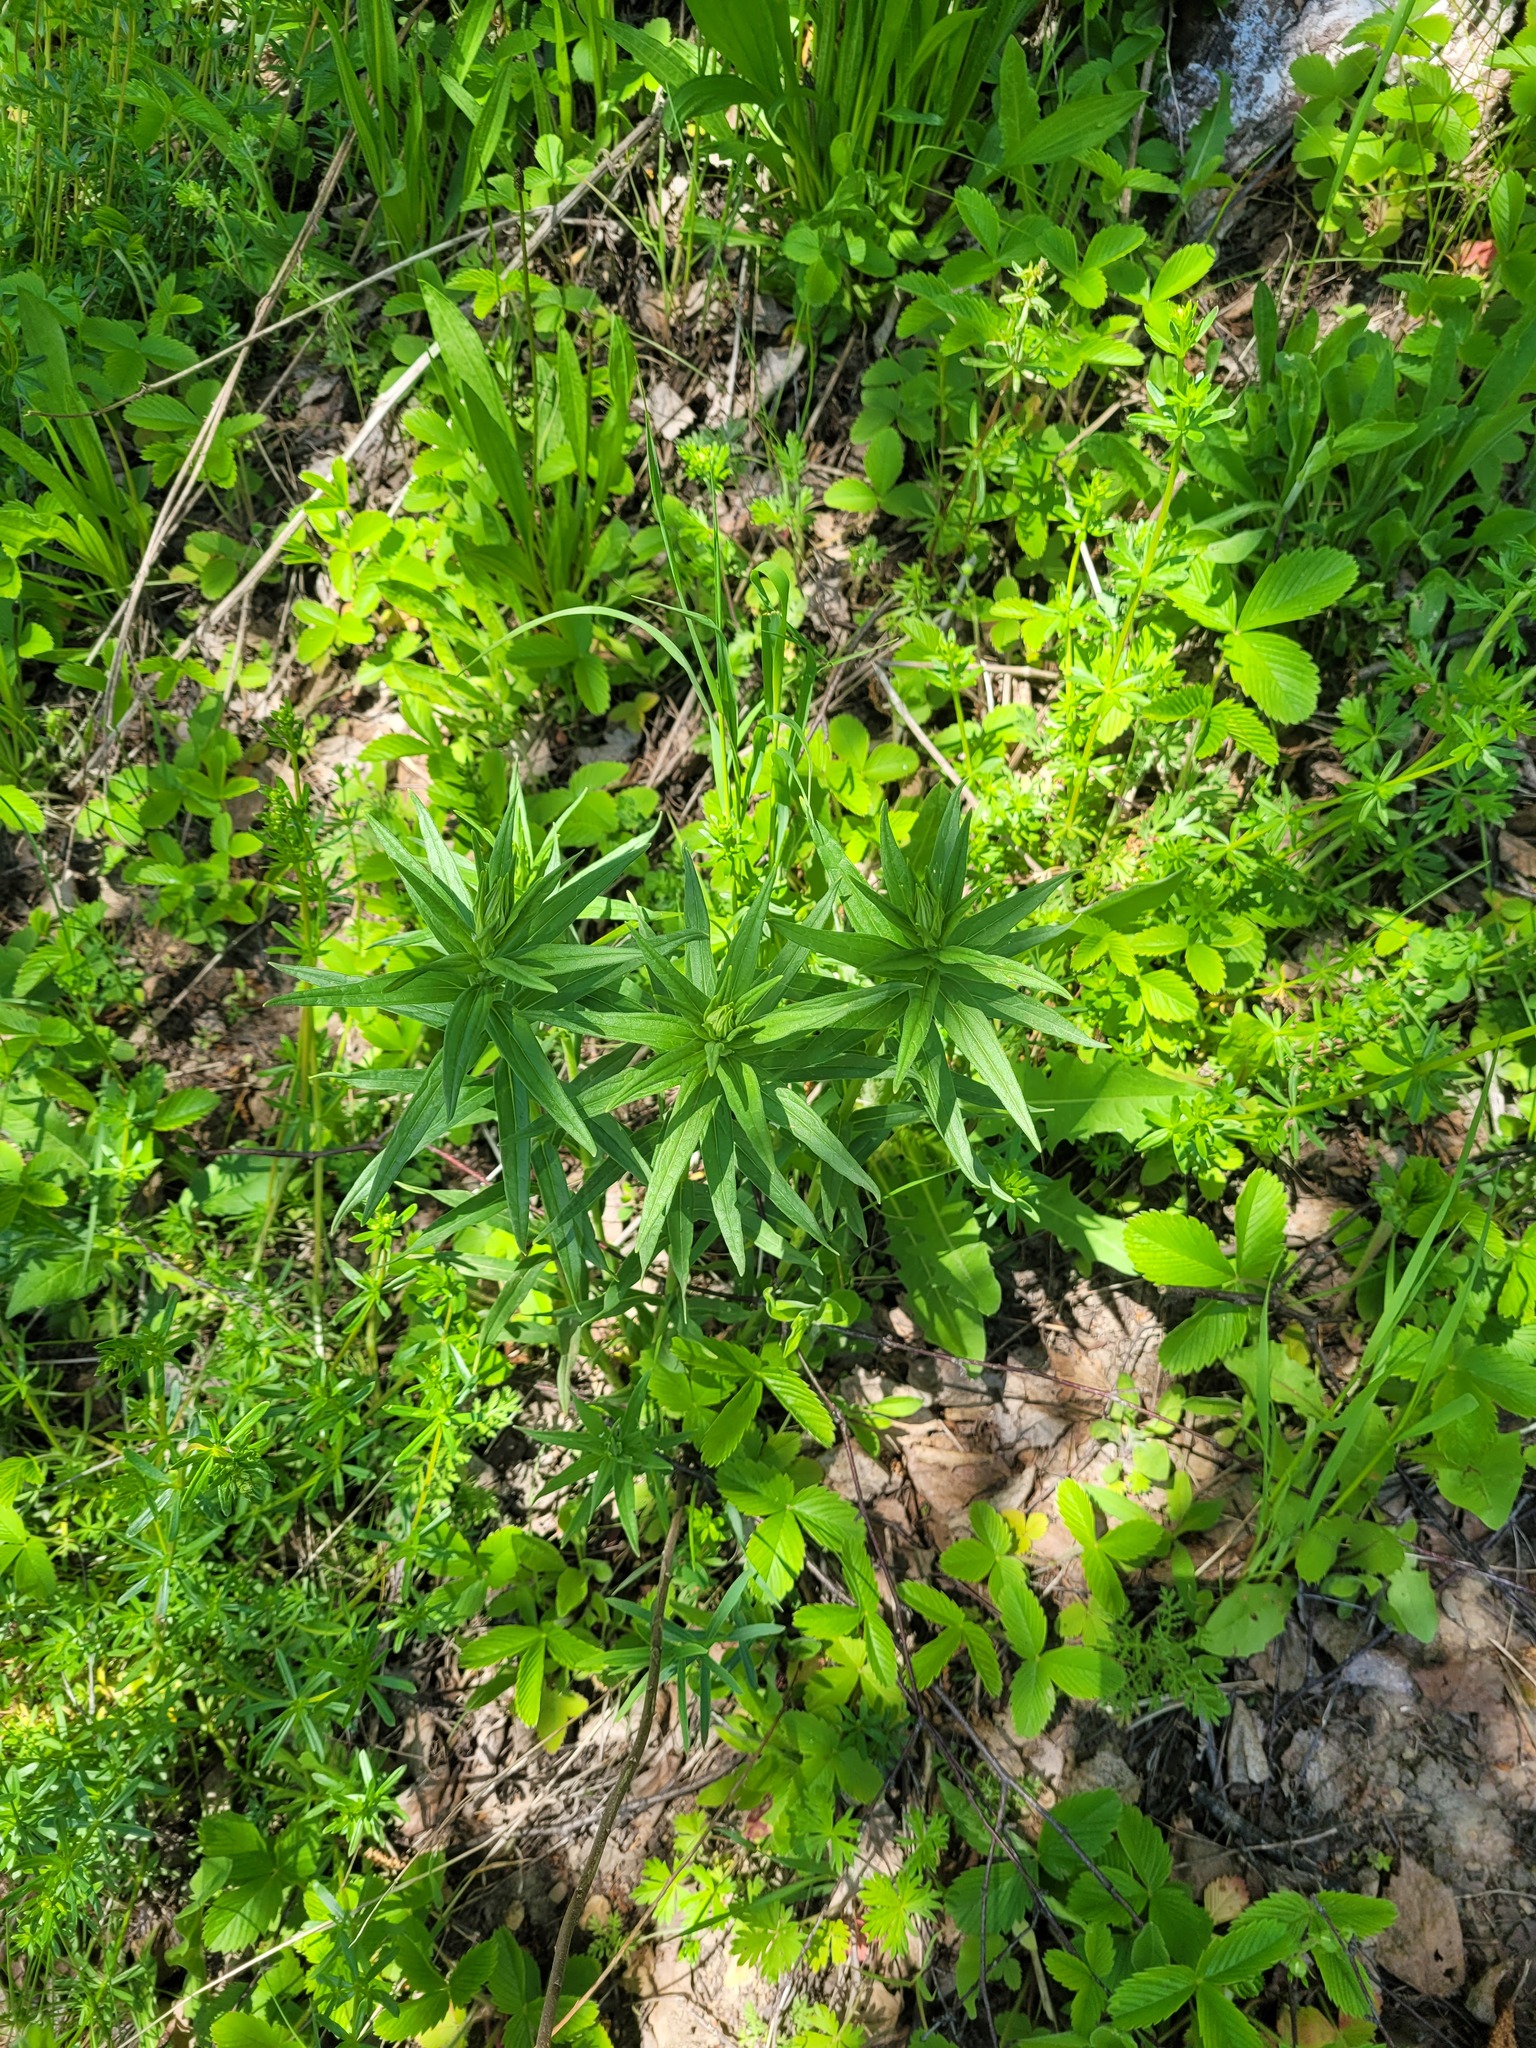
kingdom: Plantae
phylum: Tracheophyta
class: Magnoliopsida
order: Boraginales
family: Boraginaceae
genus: Lithospermum
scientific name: Lithospermum officinale
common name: Common gromwell
